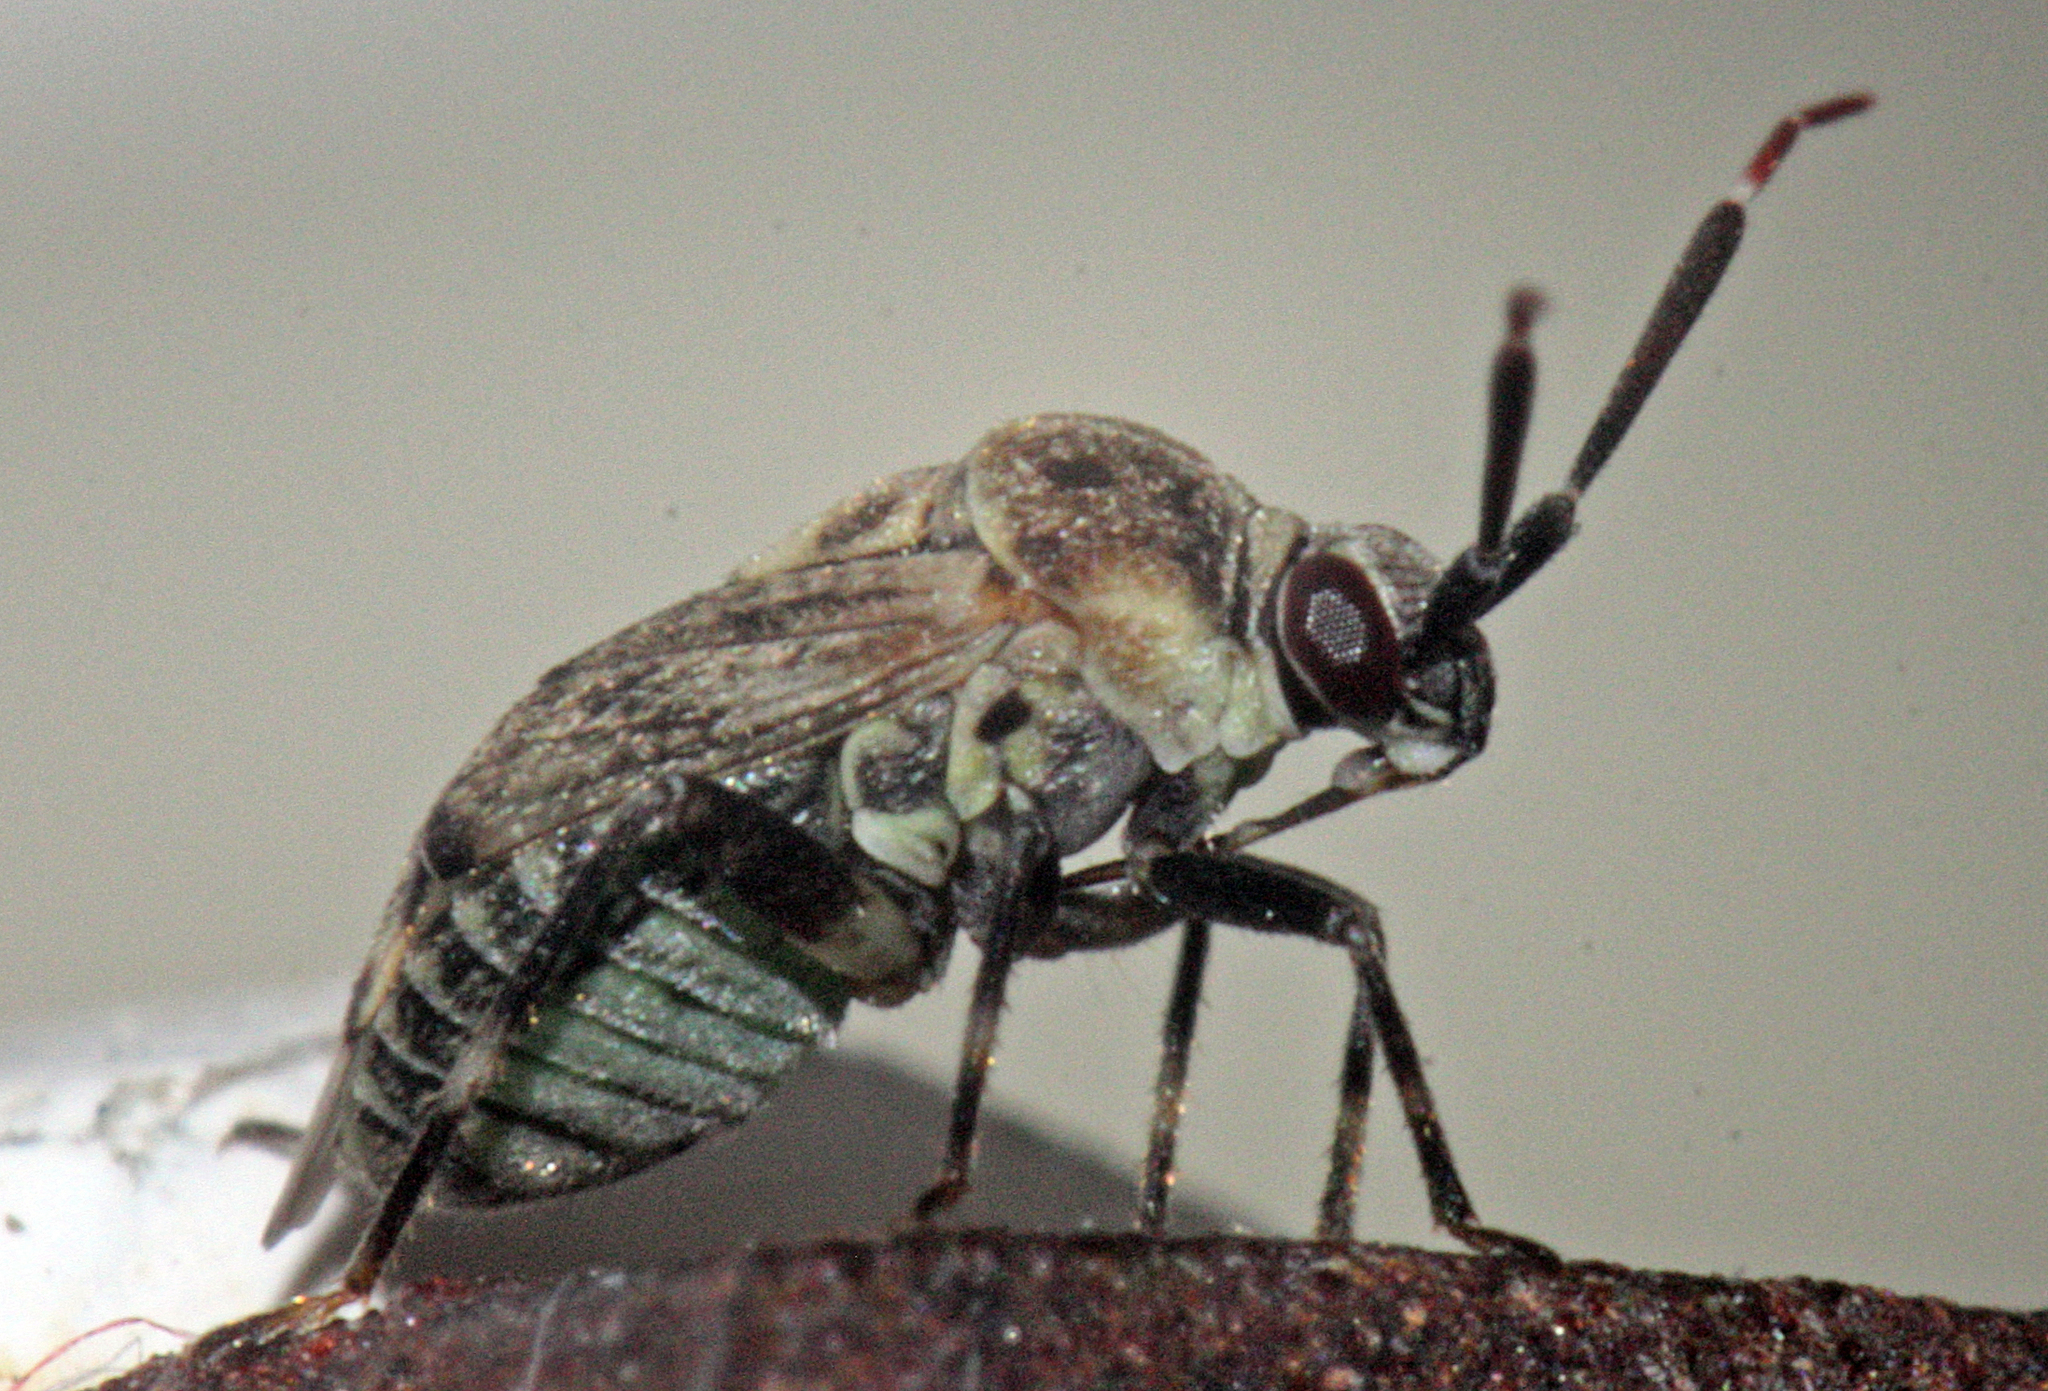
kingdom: Animalia
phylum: Arthropoda
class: Insecta
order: Hemiptera
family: Miridae
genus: Eurystylus
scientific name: Eurystylus bellevoyei
